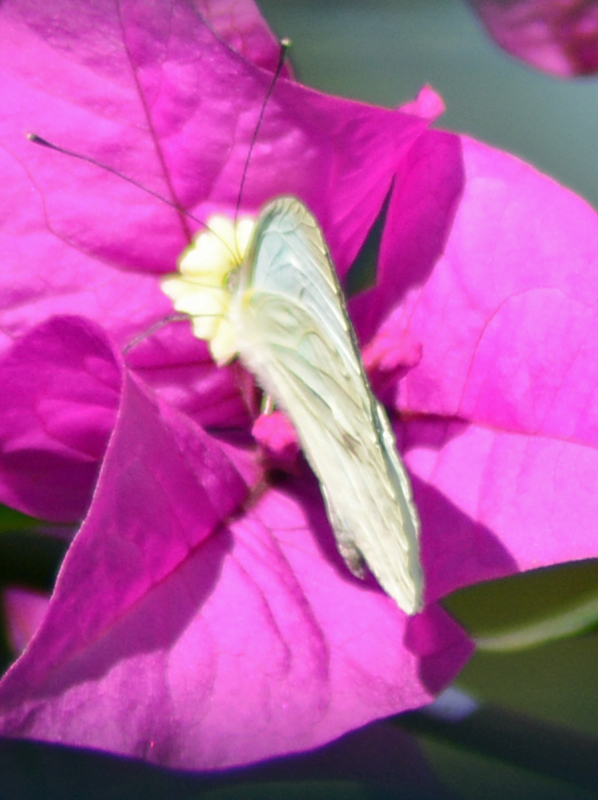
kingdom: Animalia
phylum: Arthropoda
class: Insecta
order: Lepidoptera
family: Pieridae
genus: Leptophobia
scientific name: Leptophobia aripa
